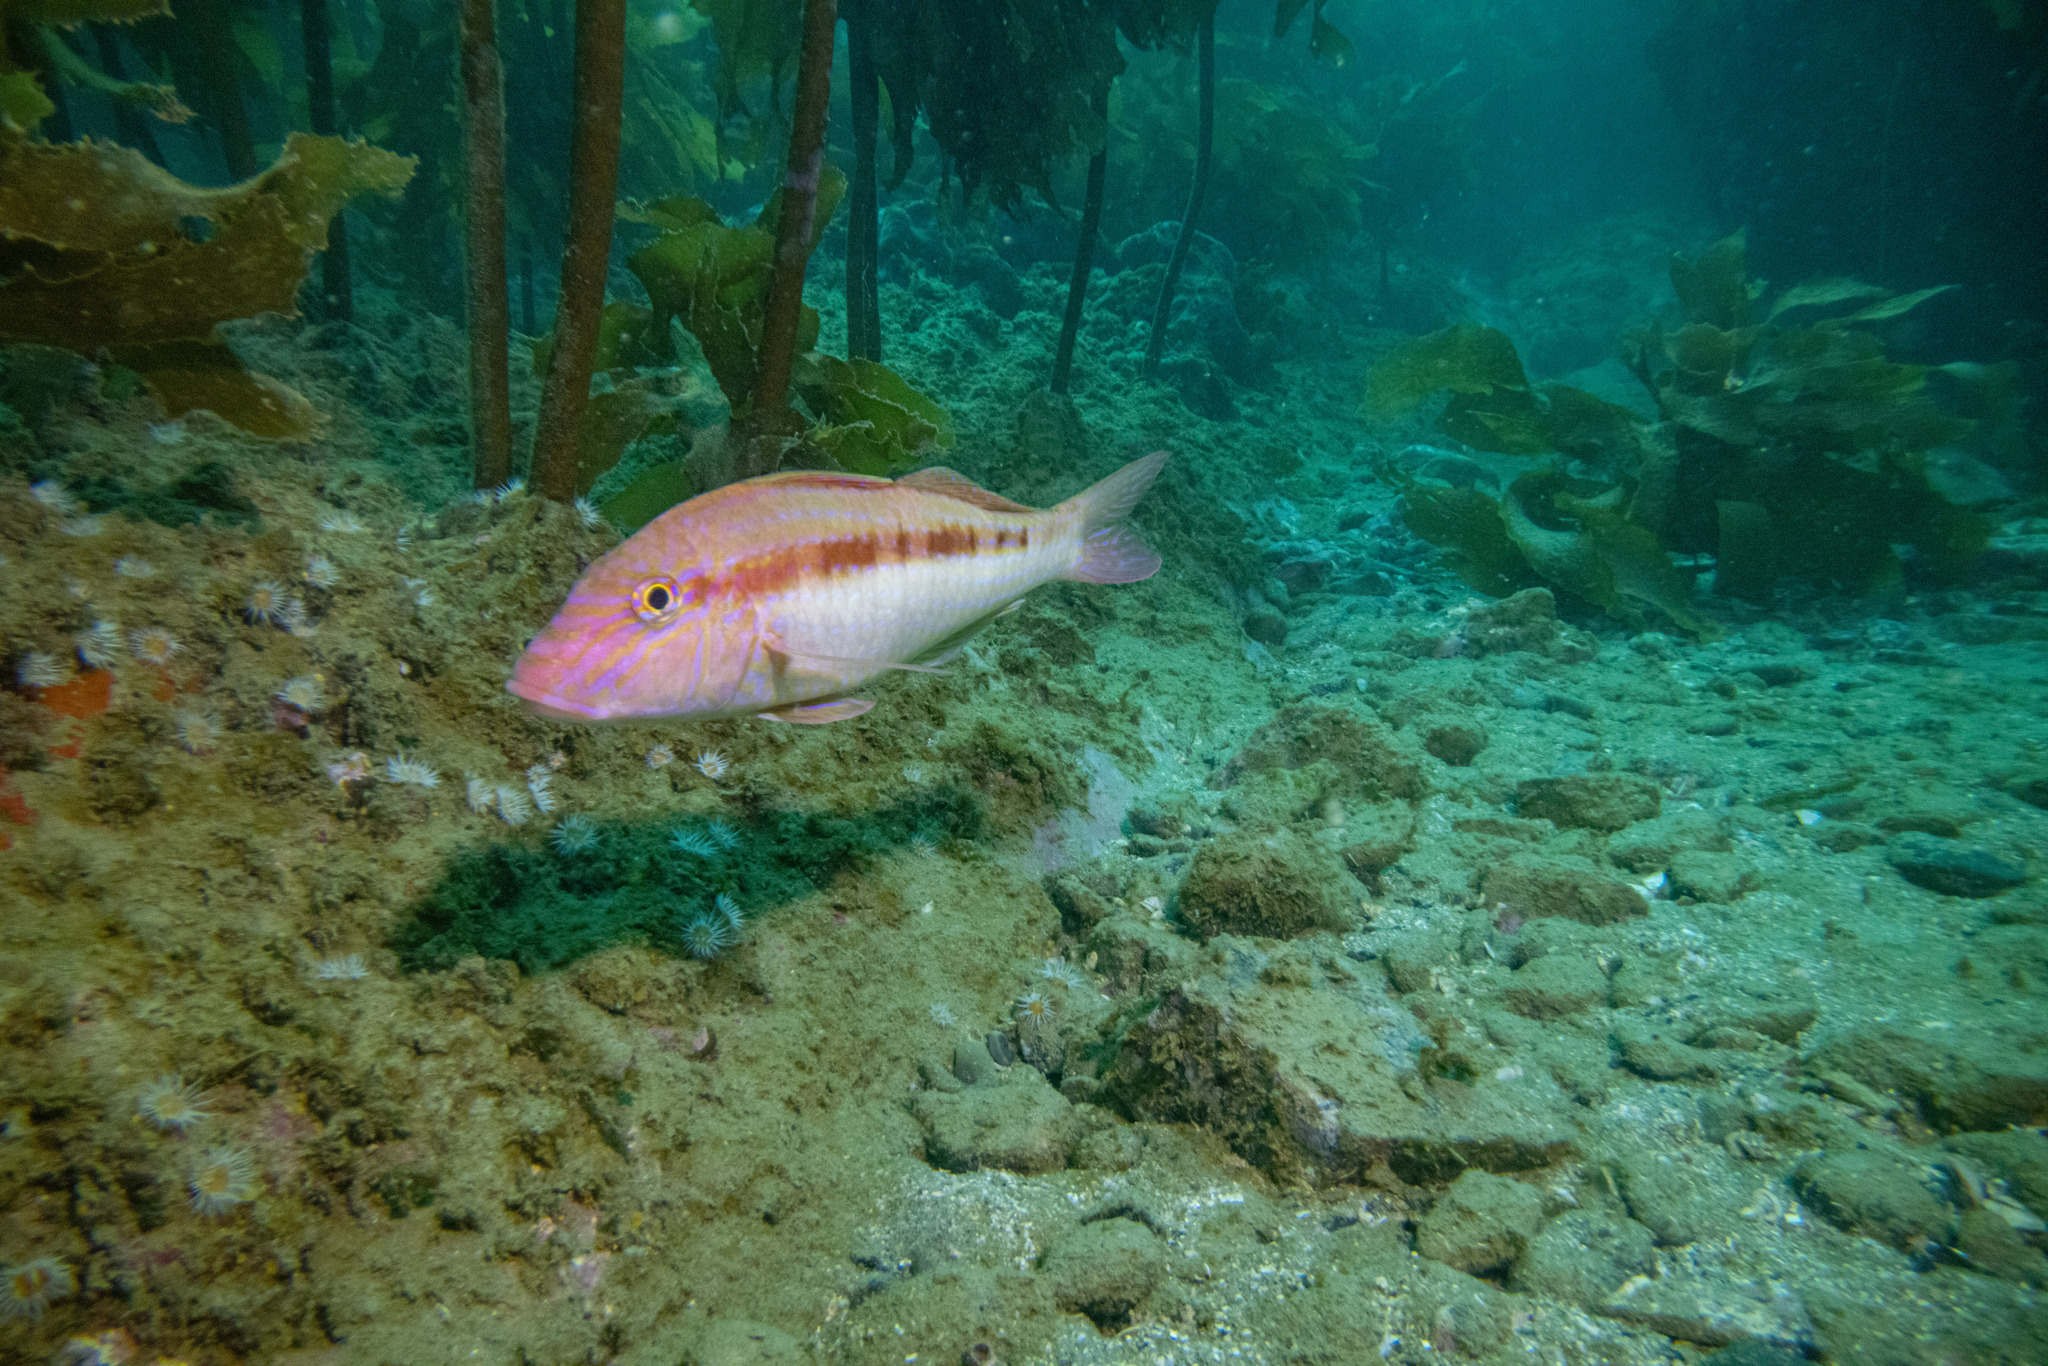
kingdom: Animalia
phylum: Chordata
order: Perciformes
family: Mullidae
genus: Upeneichthys
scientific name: Upeneichthys lineatus
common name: Red mullet
